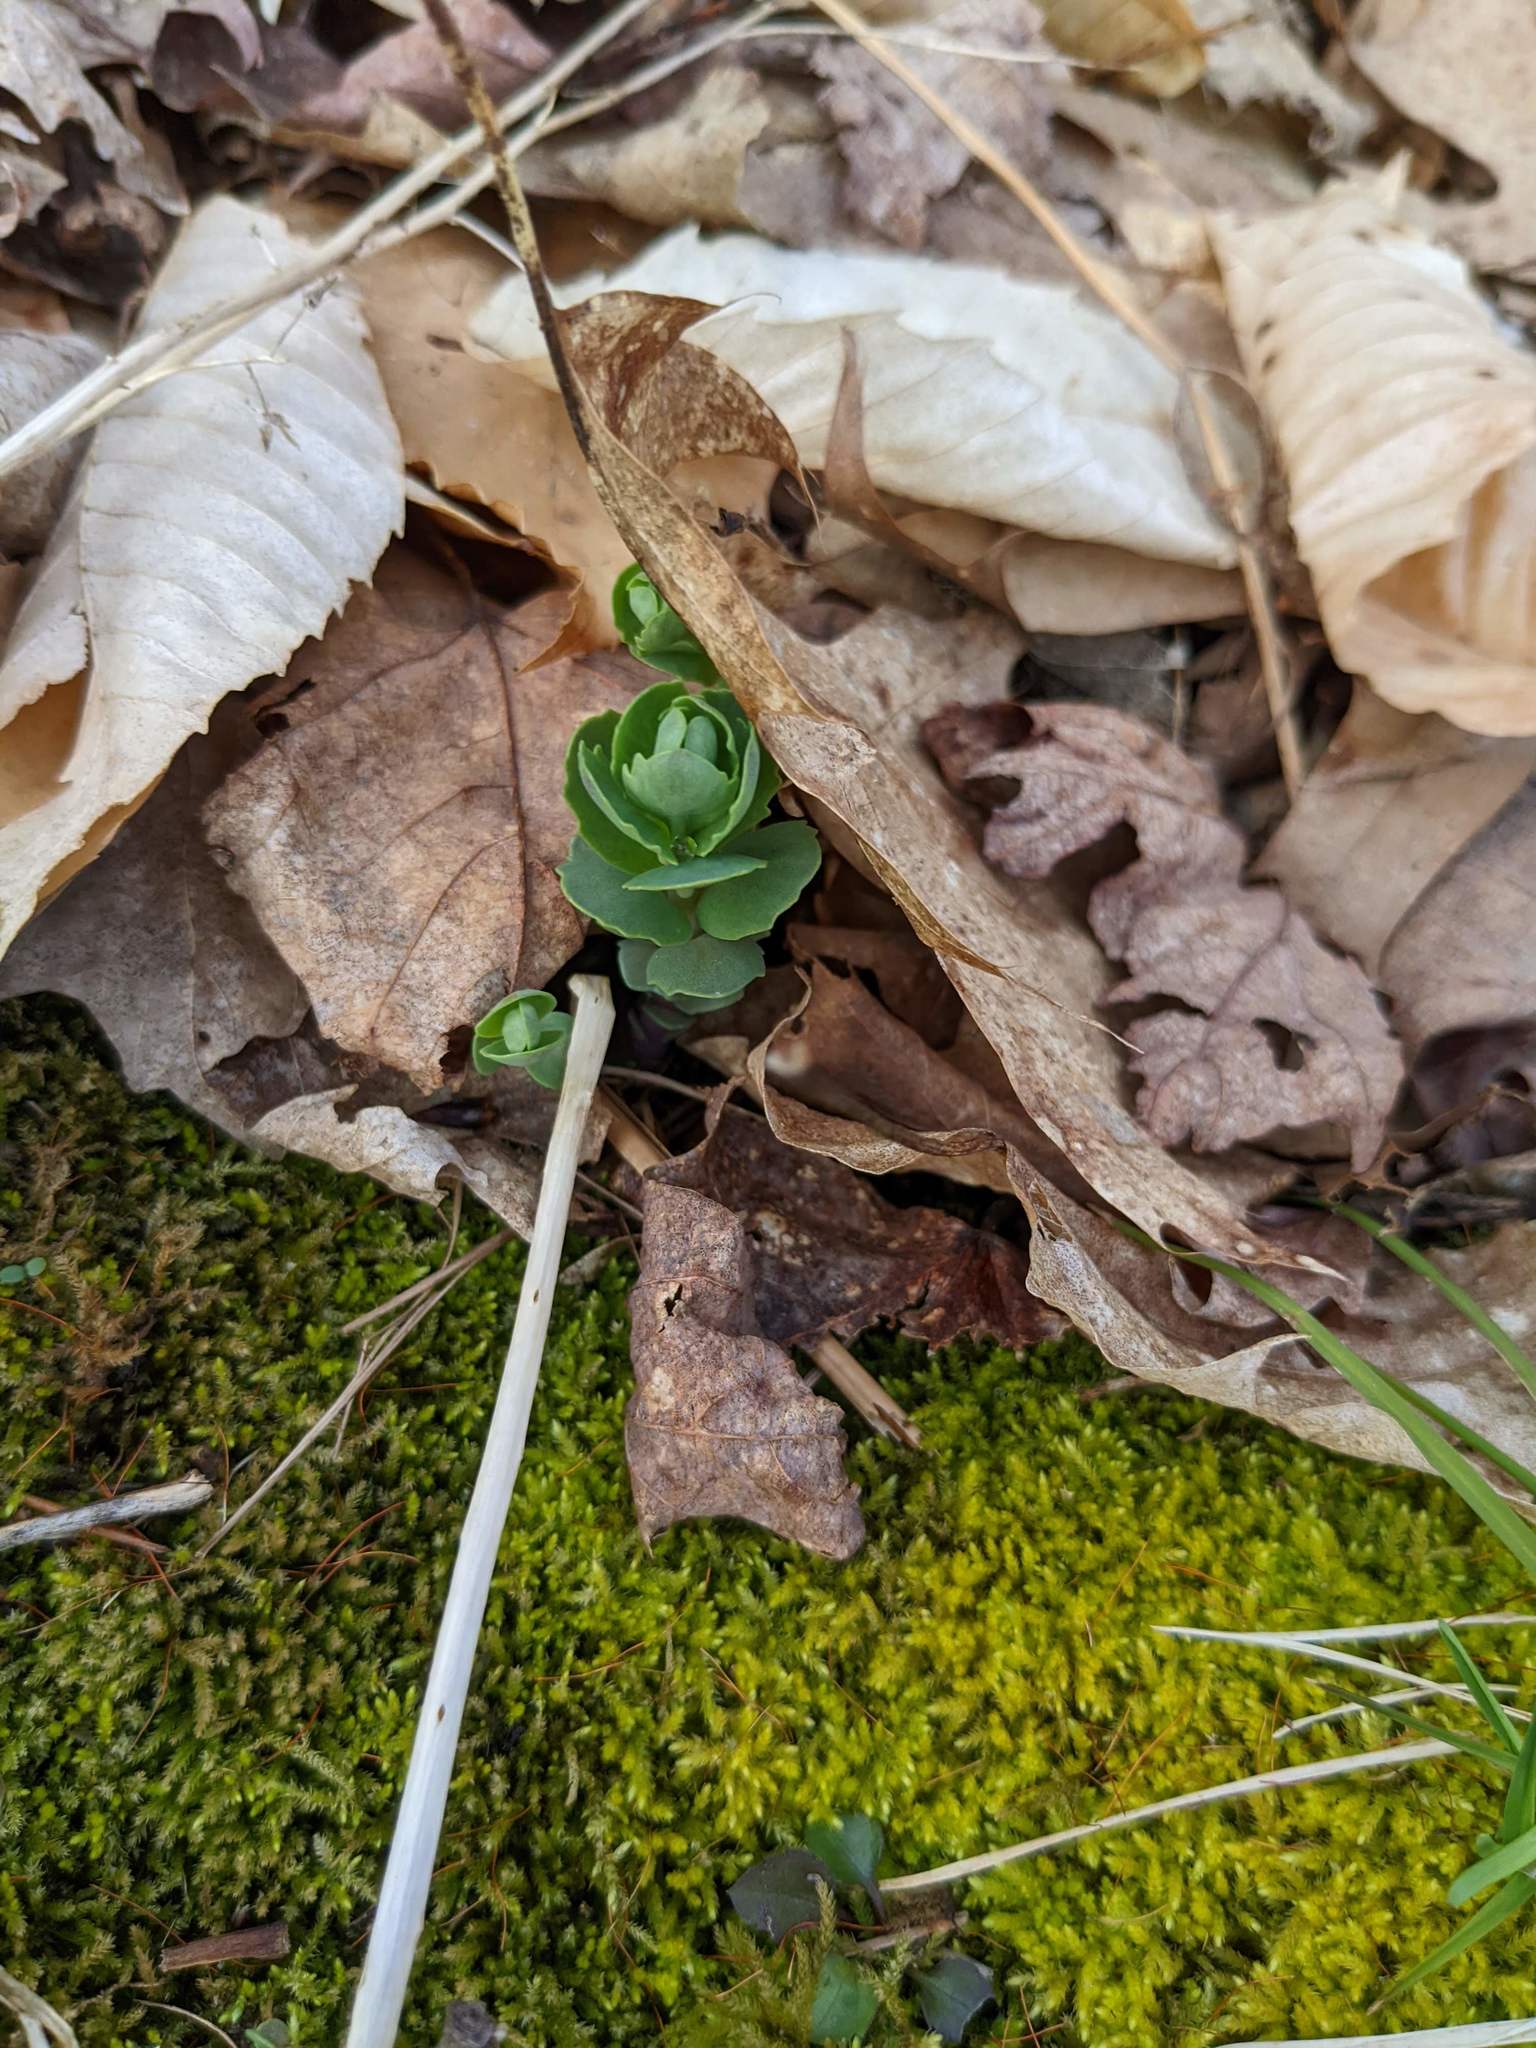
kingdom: Plantae
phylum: Tracheophyta
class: Magnoliopsida
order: Saxifragales
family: Crassulaceae
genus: Hylotelephium
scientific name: Hylotelephium telephium
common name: Live-forever
